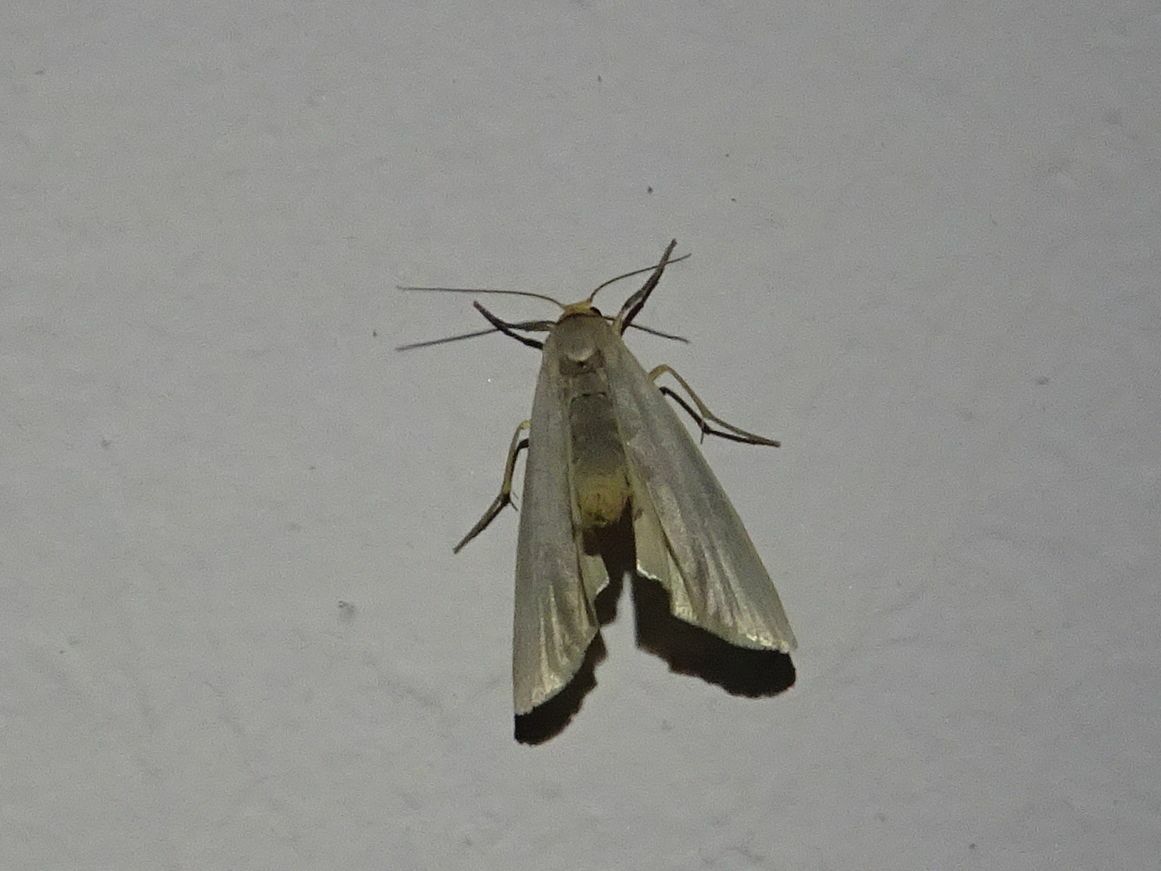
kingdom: Animalia
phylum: Arthropoda
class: Insecta
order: Lepidoptera
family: Erebidae
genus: Eilema
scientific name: Eilema caniola
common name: Hoary footman
